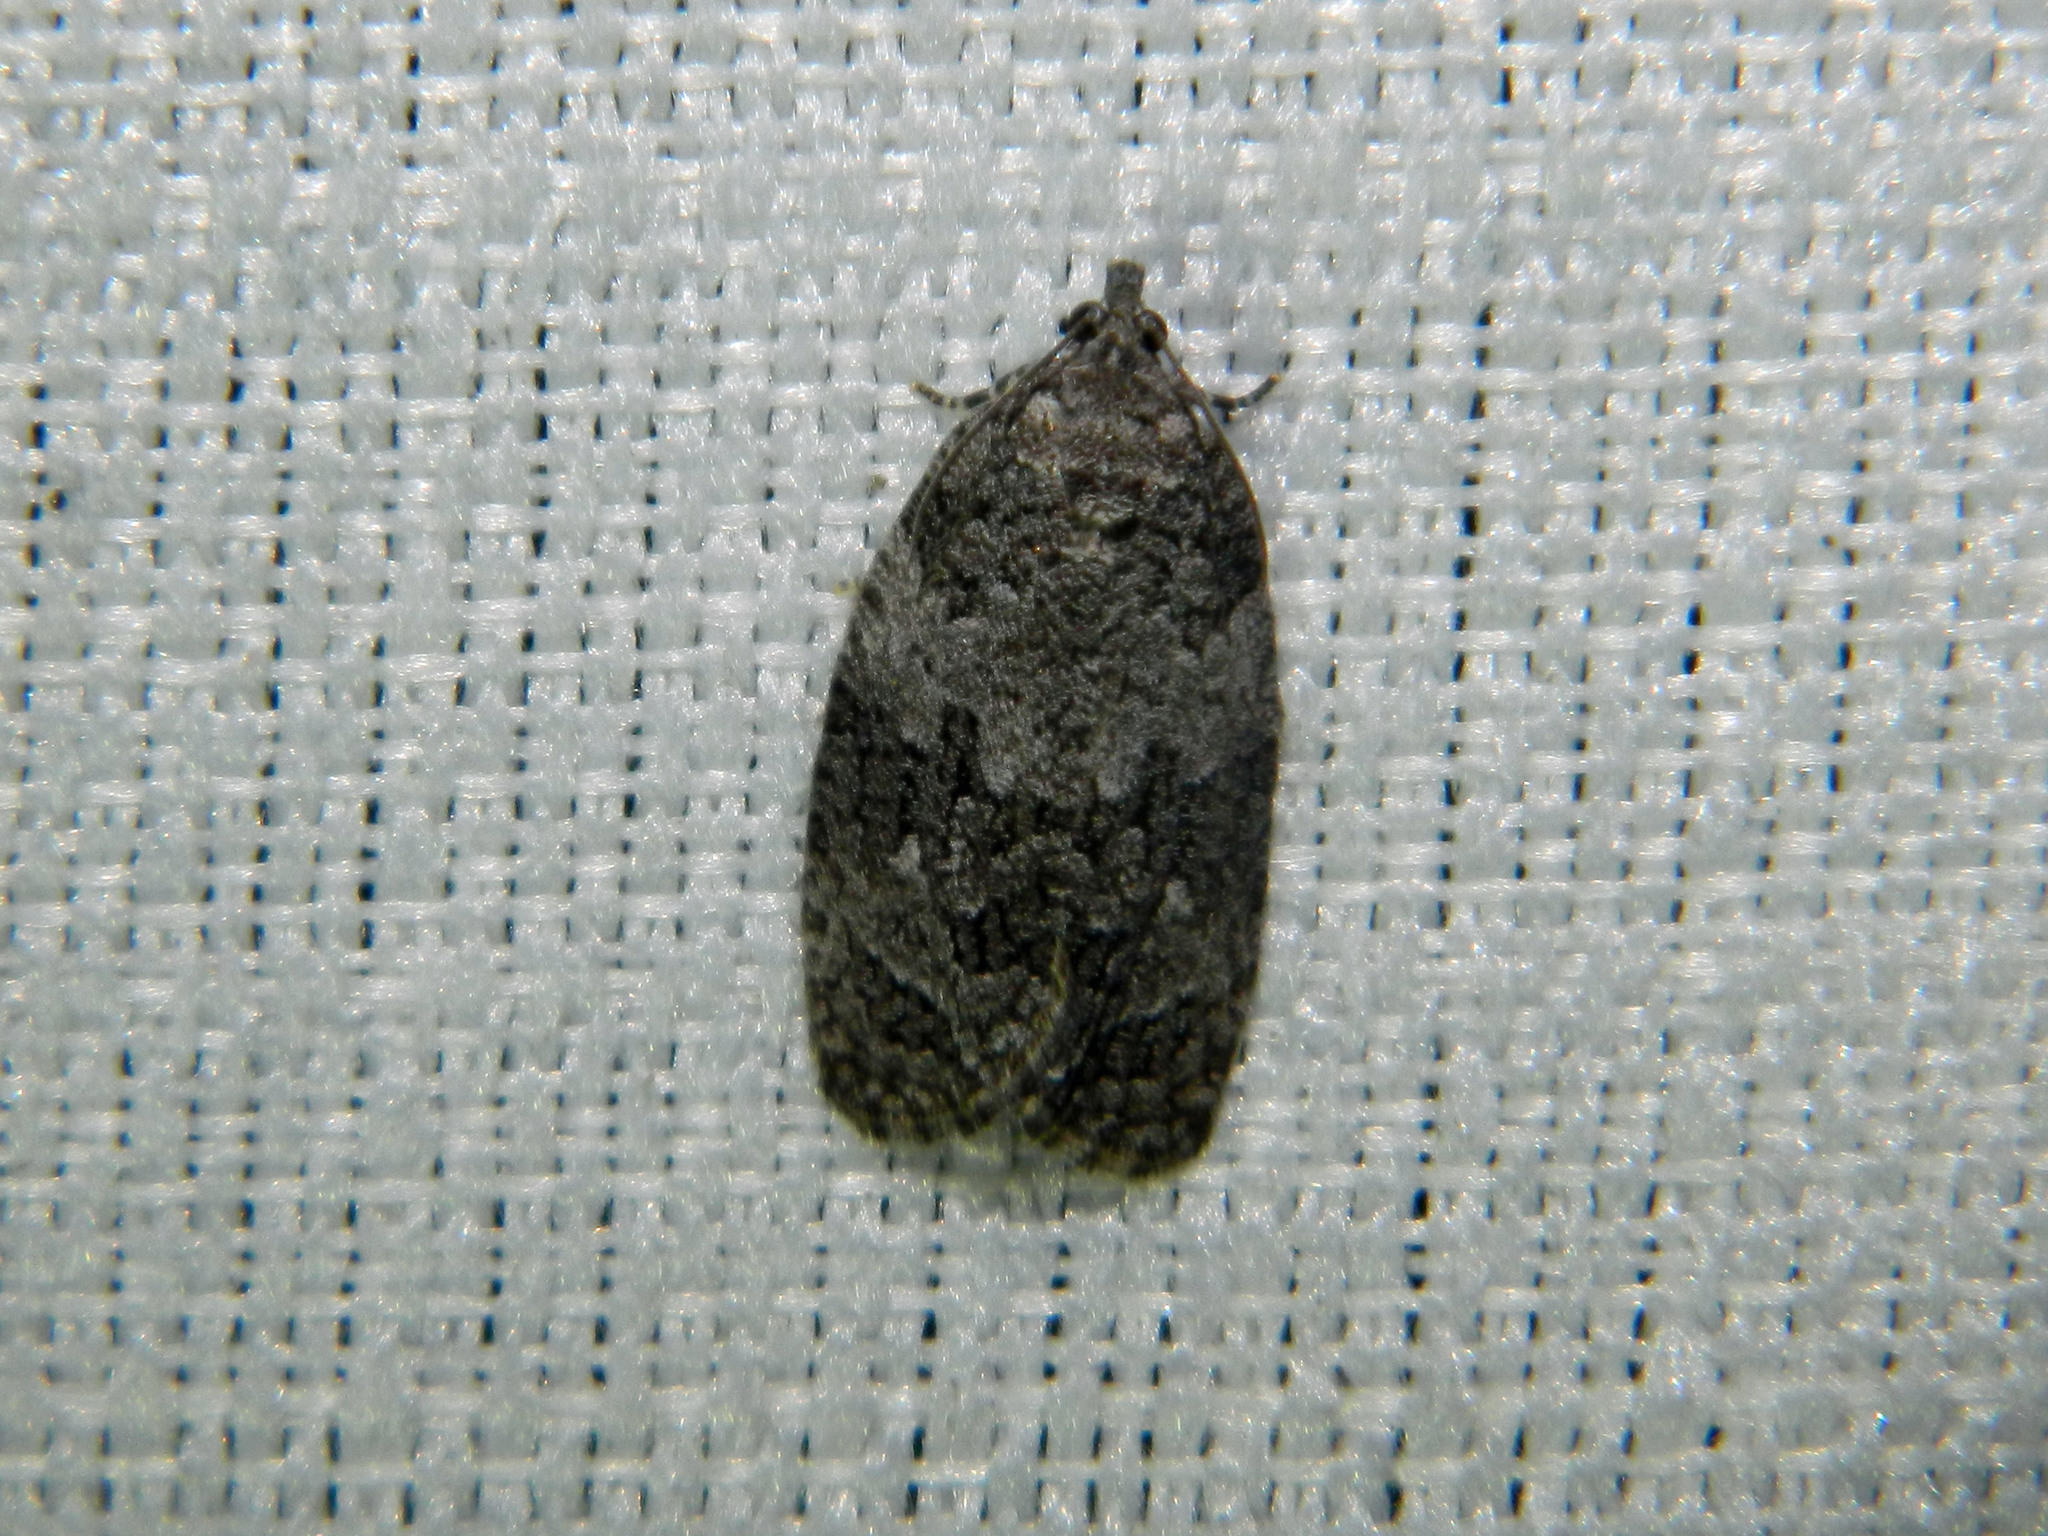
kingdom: Animalia
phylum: Arthropoda
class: Insecta
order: Lepidoptera
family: Tortricidae
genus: Apotomis
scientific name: Apotomis removana
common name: Green aspen leafroller
